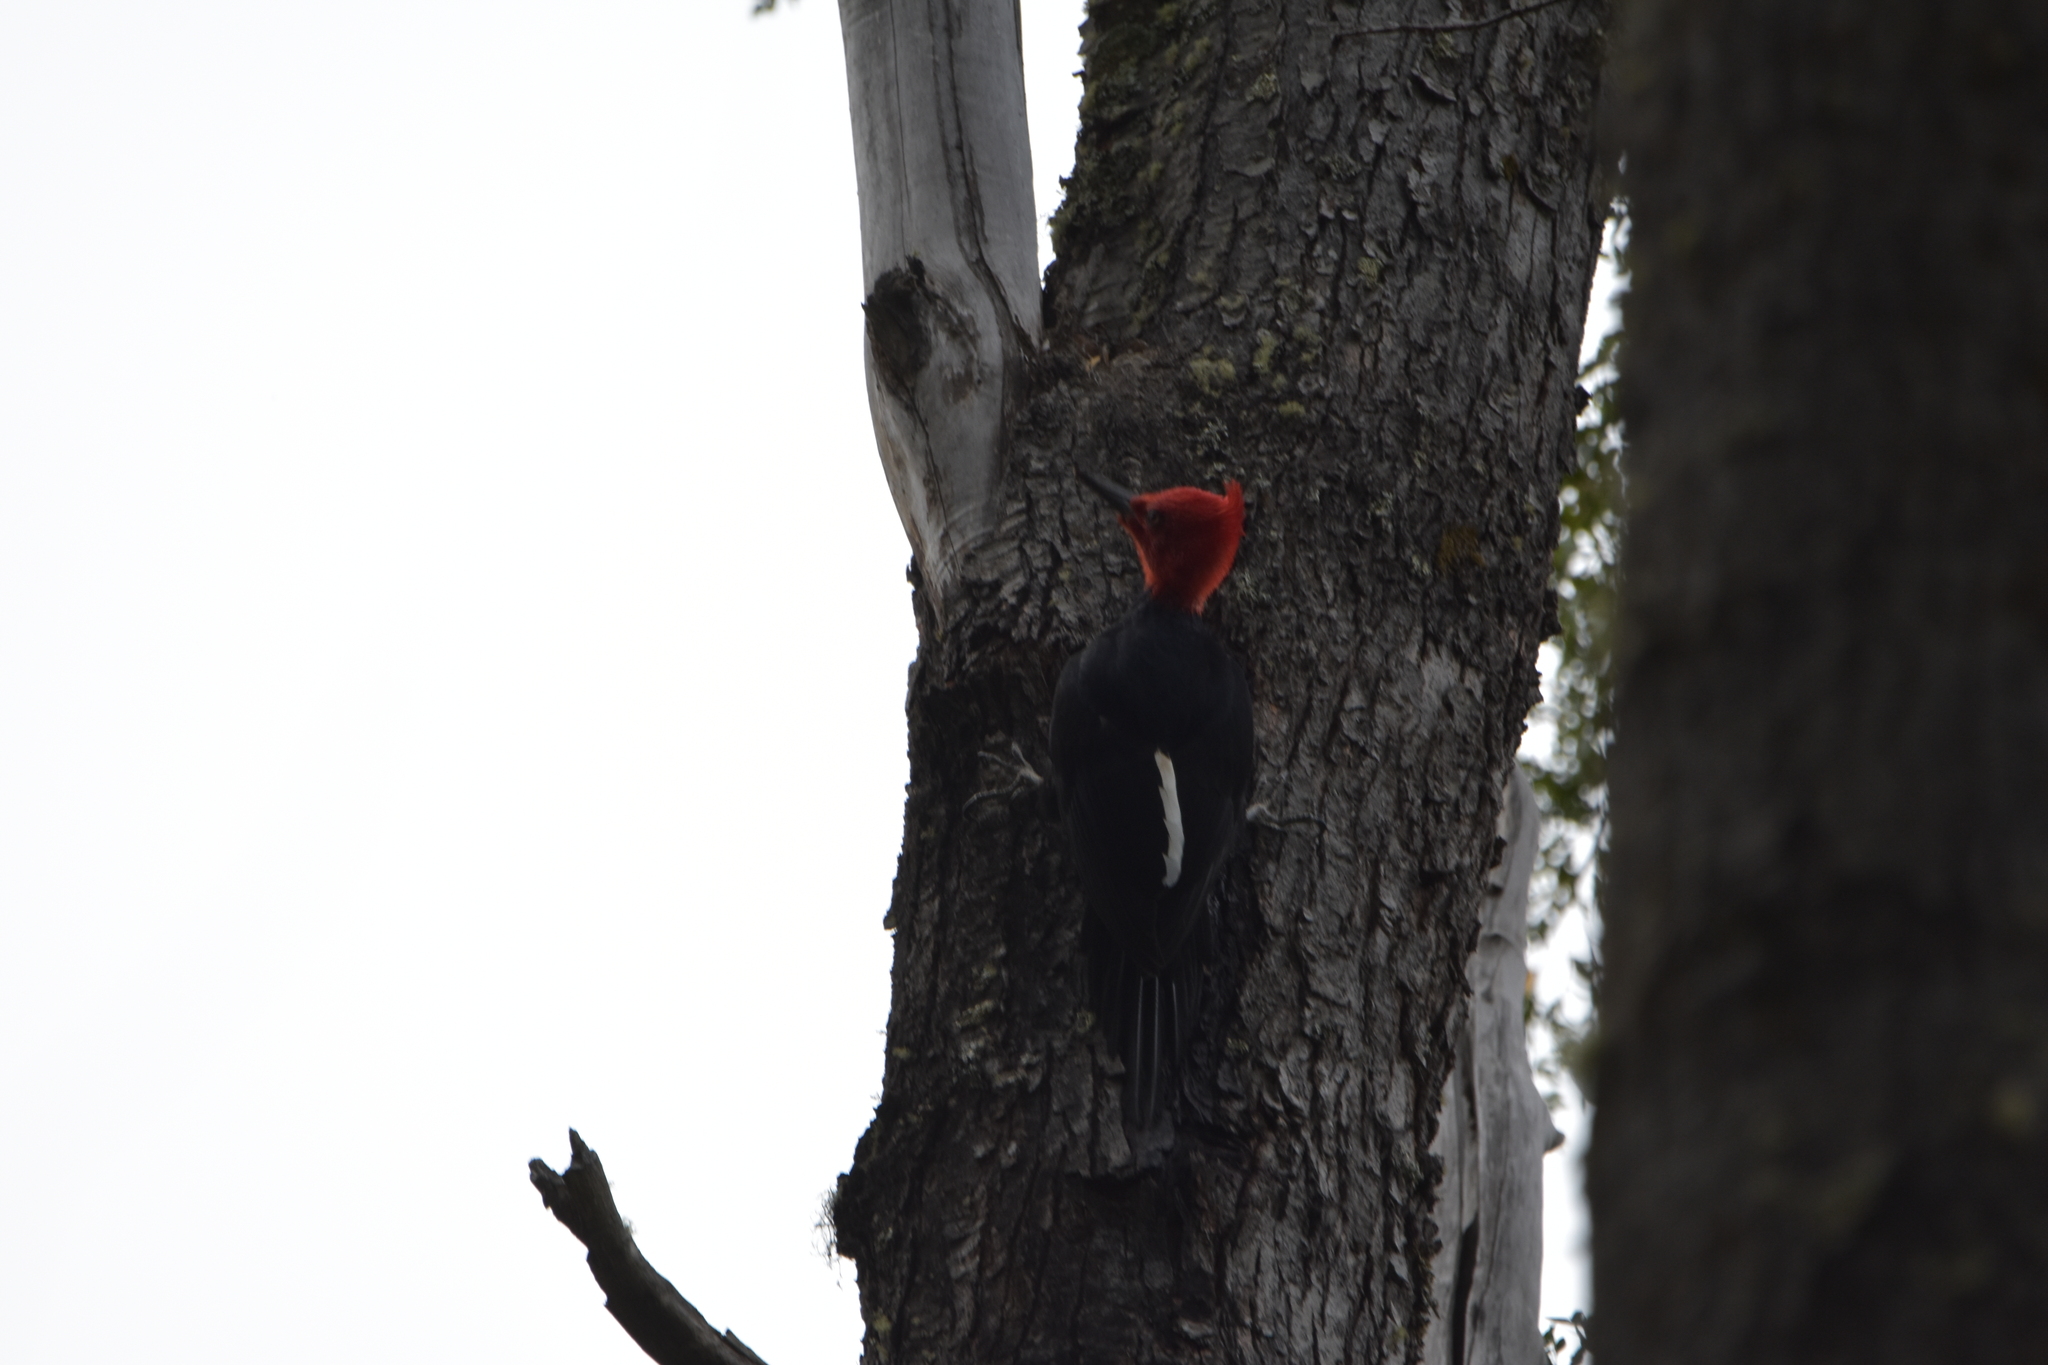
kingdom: Animalia
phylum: Chordata
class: Aves
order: Piciformes
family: Picidae
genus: Campephilus
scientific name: Campephilus magellanicus
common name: Magellanic woodpecker
